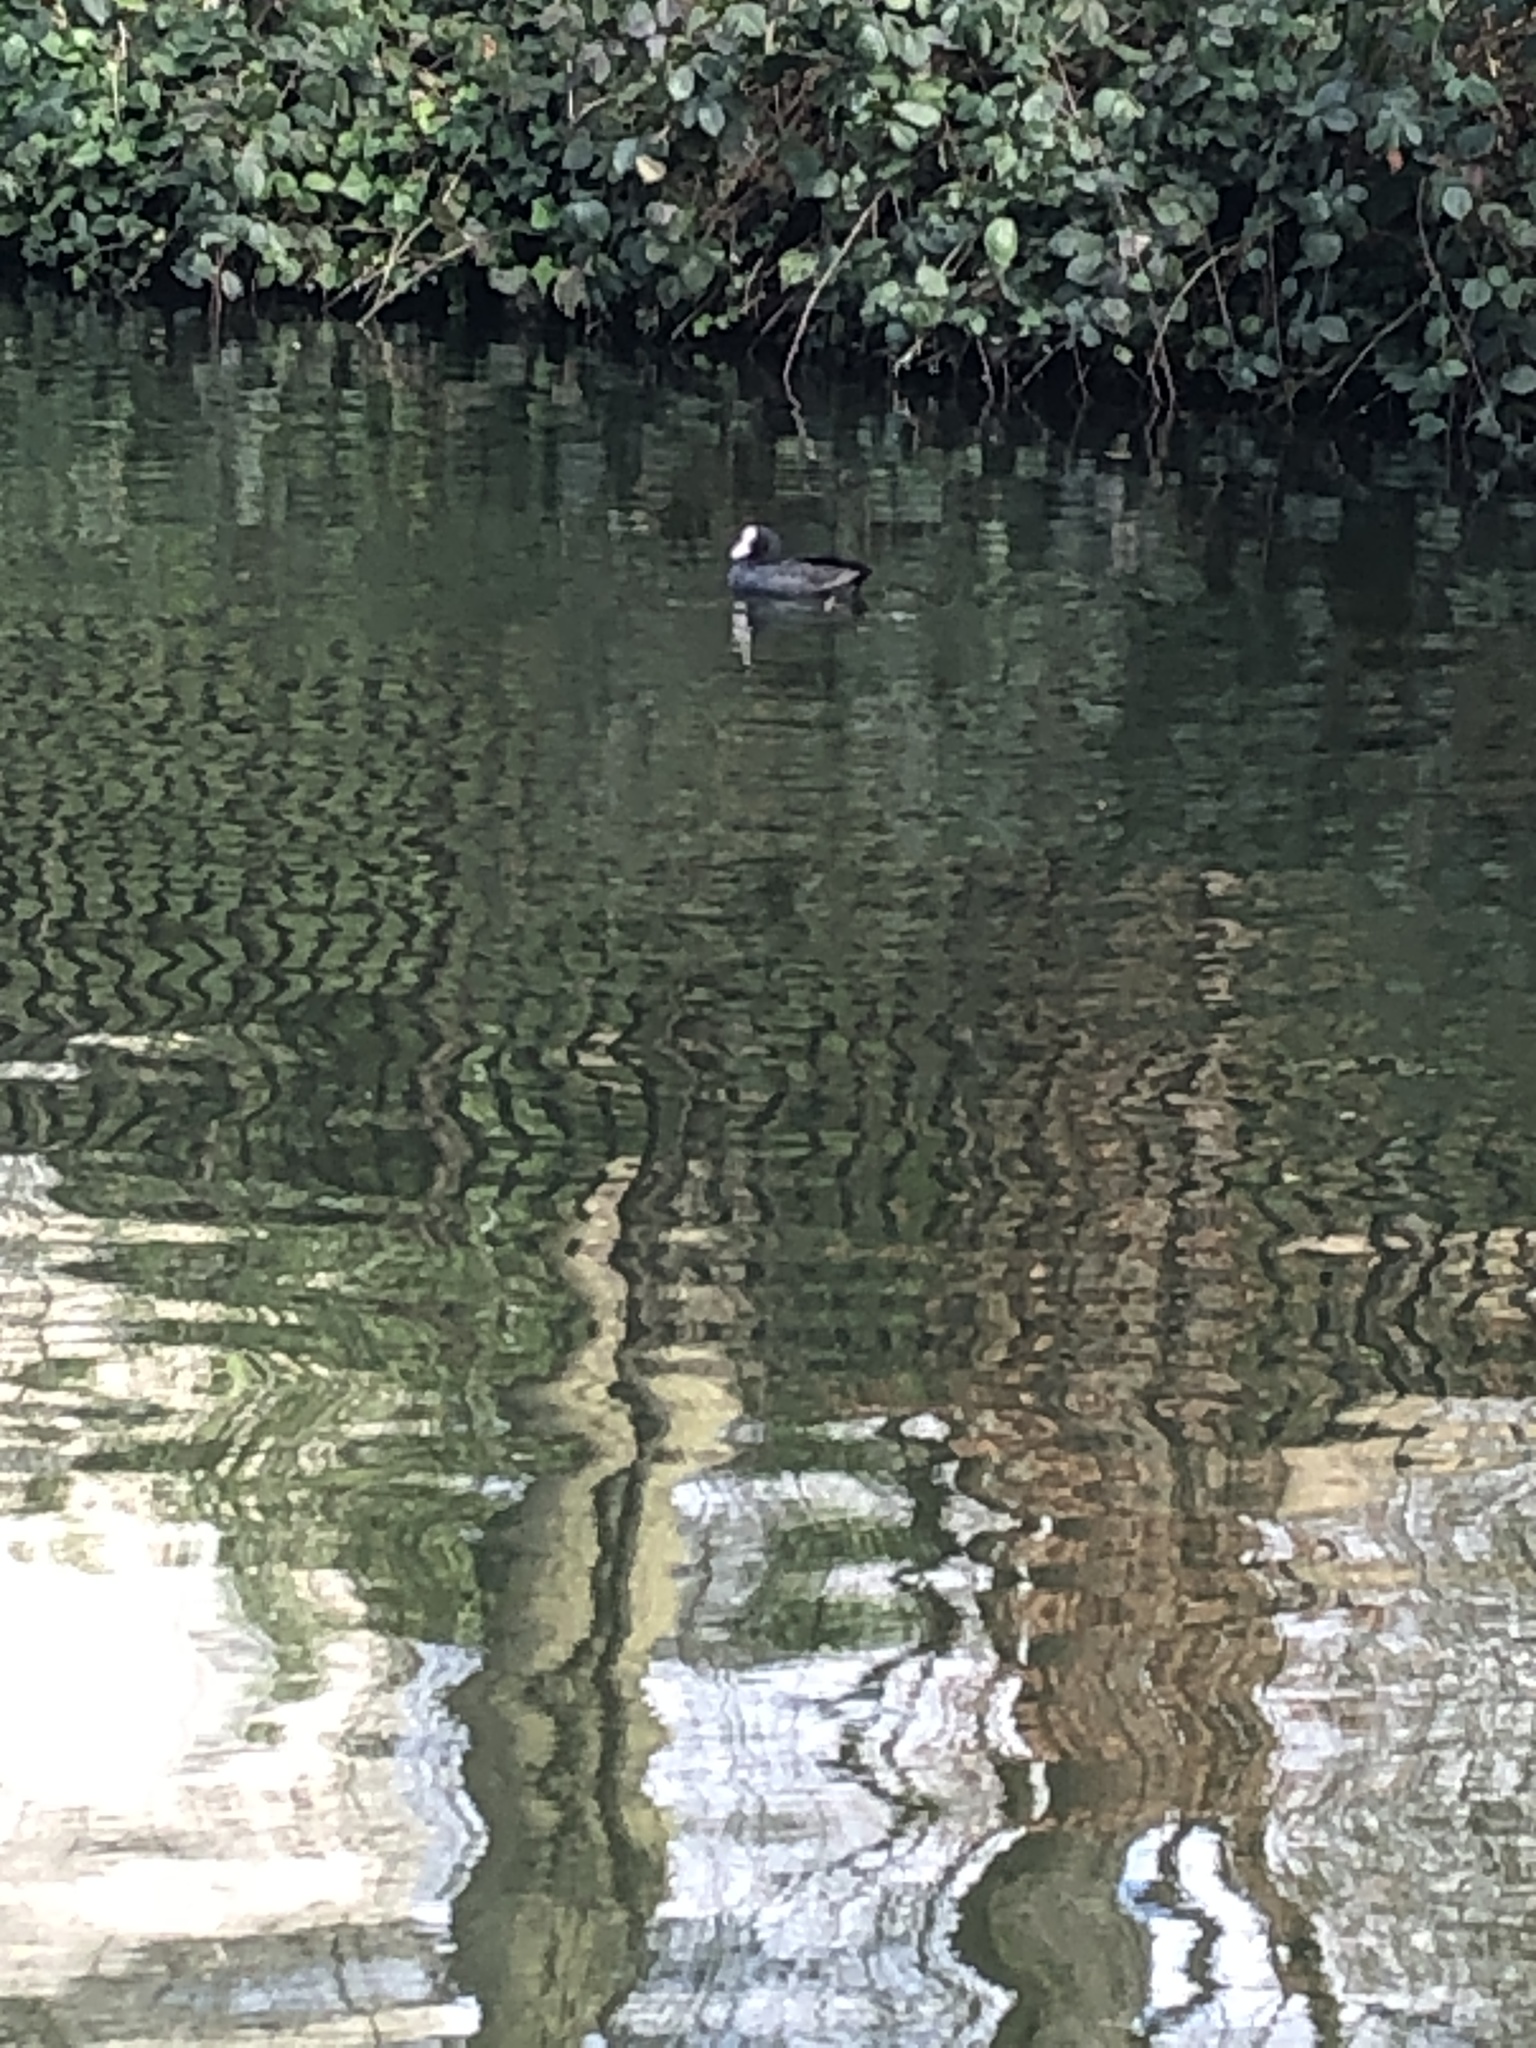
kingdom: Animalia
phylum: Chordata
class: Aves
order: Gruiformes
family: Rallidae
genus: Fulica
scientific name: Fulica atra
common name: Eurasian coot
